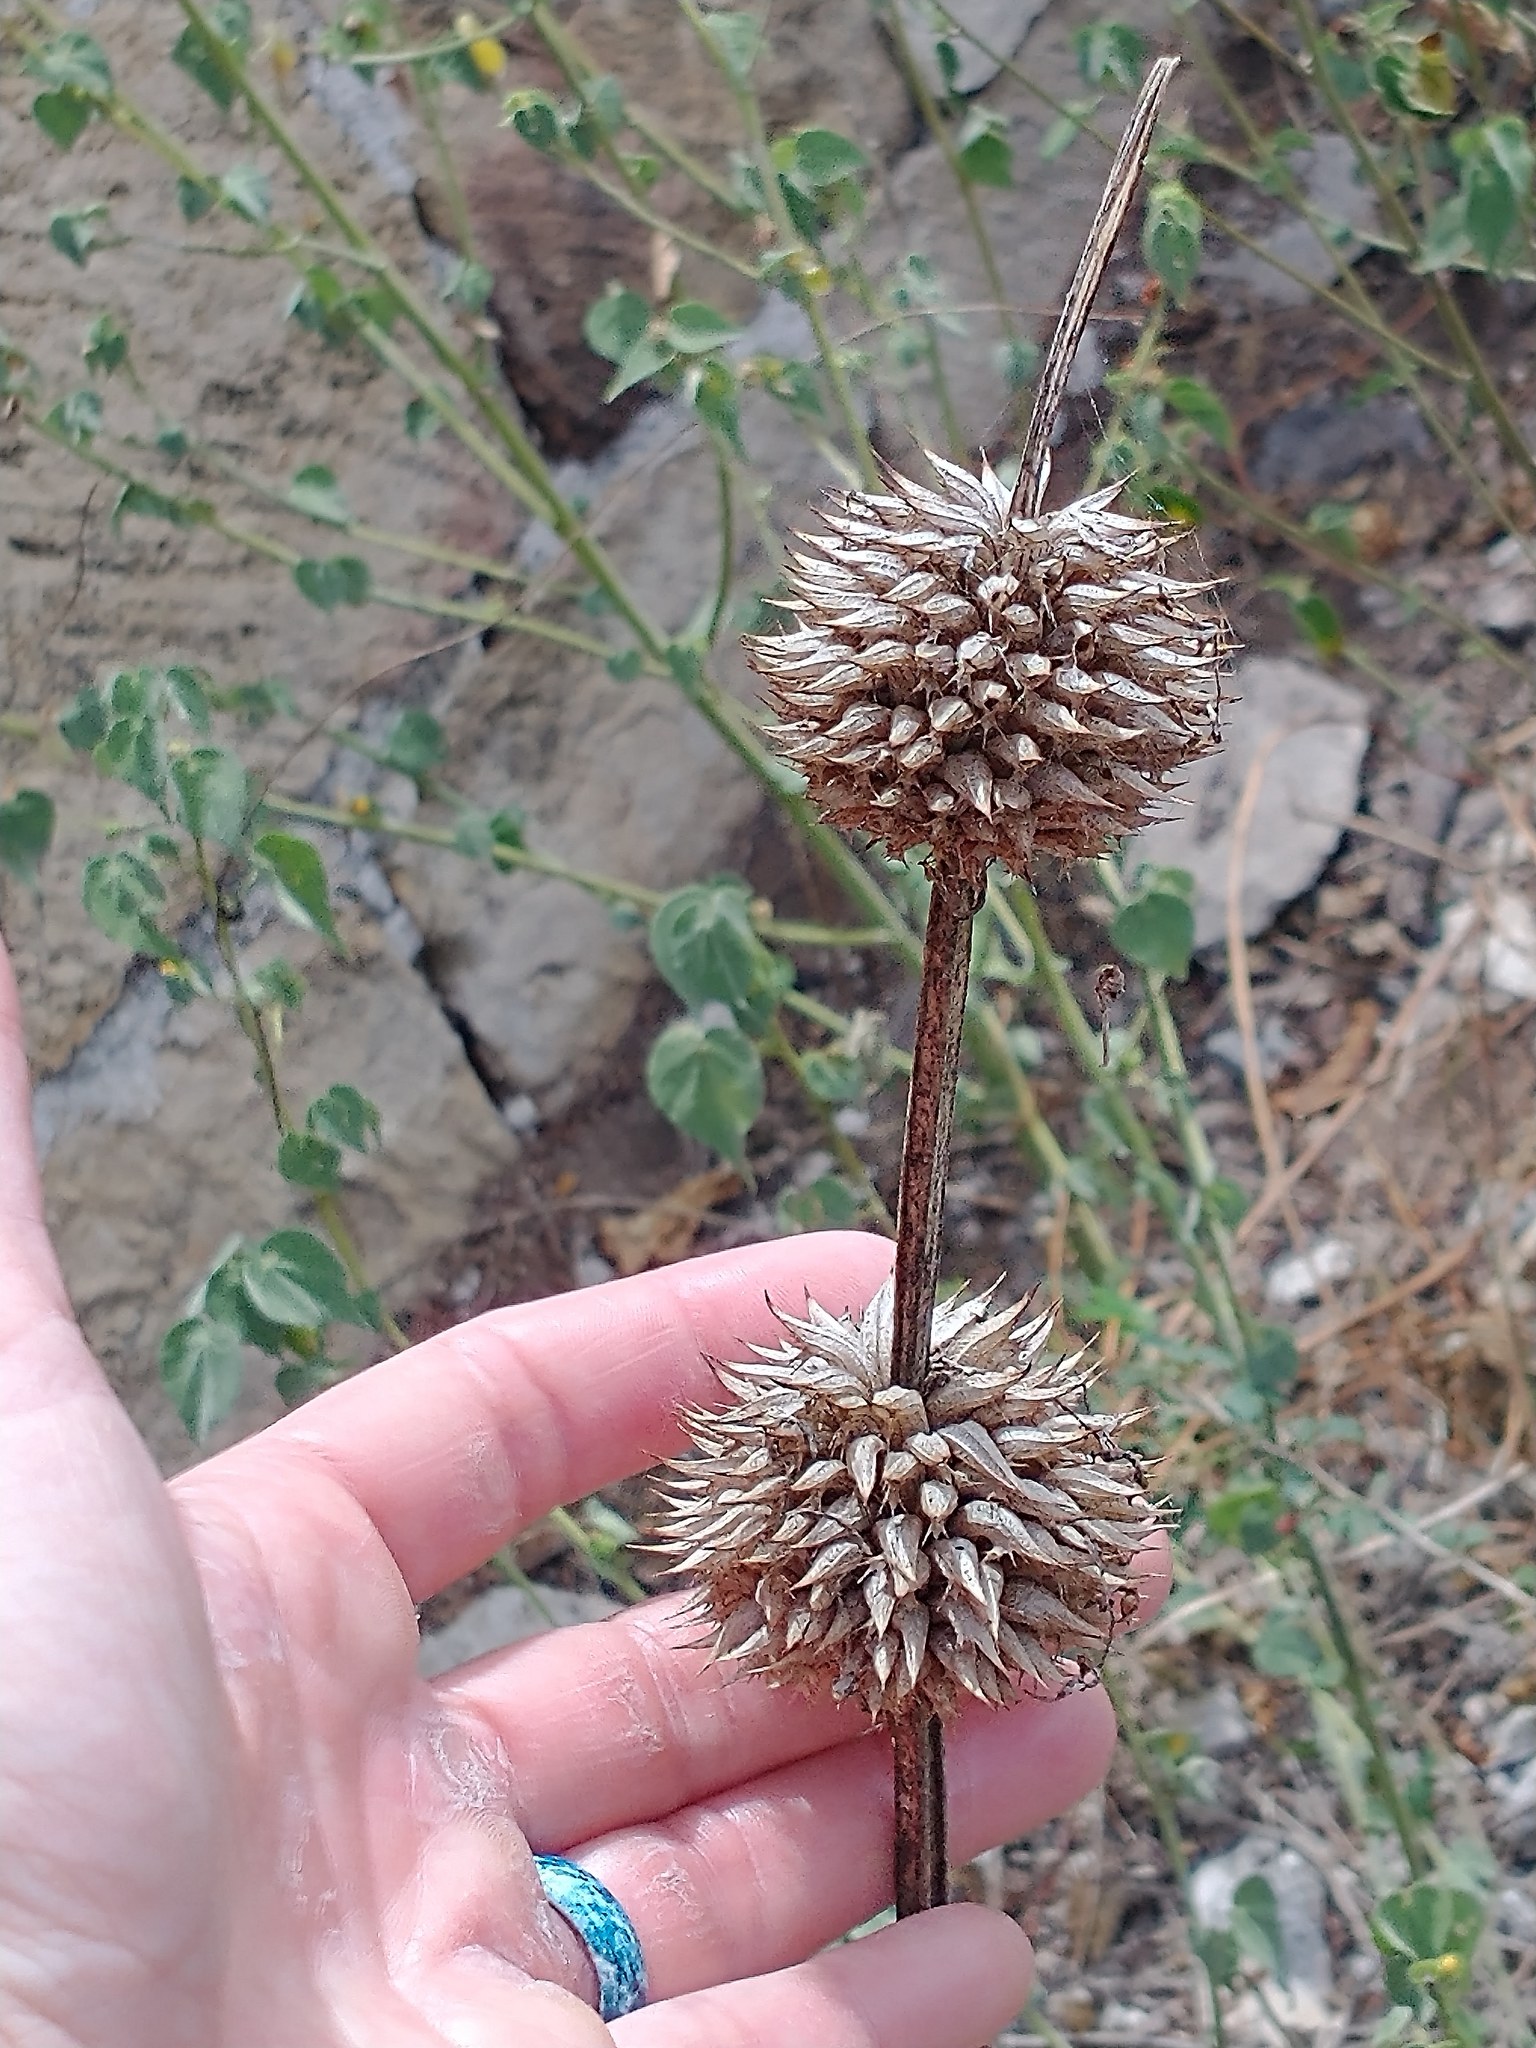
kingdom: Plantae
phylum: Tracheophyta
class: Magnoliopsida
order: Lamiales
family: Lamiaceae
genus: Leonotis
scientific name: Leonotis nepetifolia
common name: Christmas candlestick
